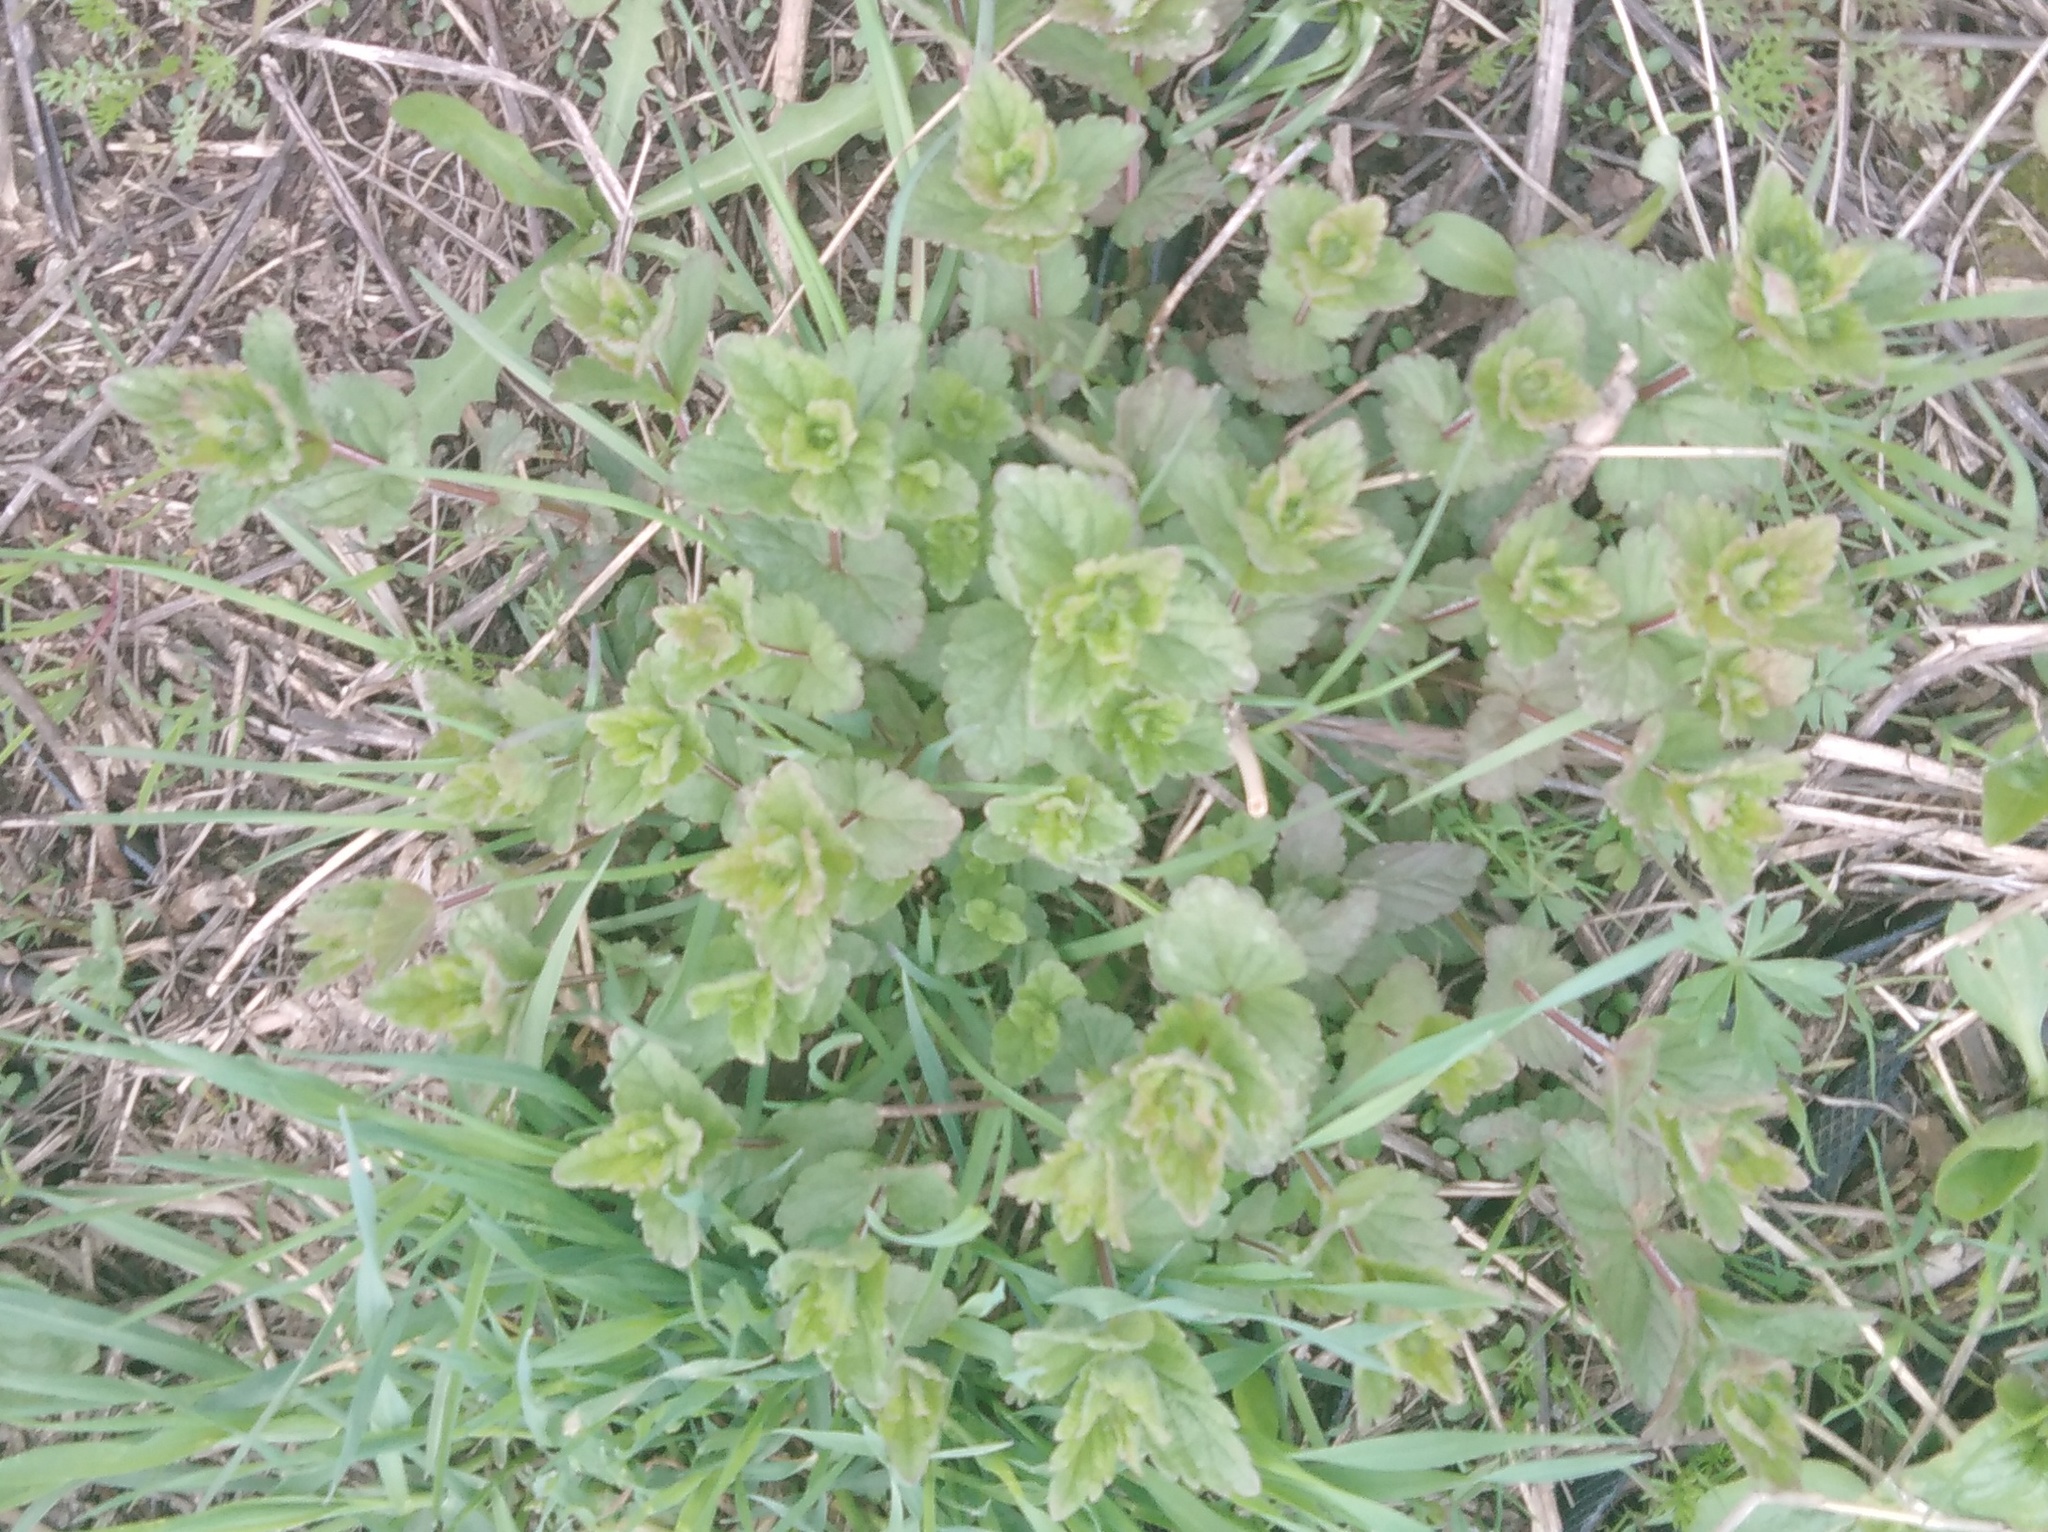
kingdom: Plantae
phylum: Tracheophyta
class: Magnoliopsida
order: Lamiales
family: Plantaginaceae
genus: Veronica
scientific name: Veronica chamaedrys
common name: Germander speedwell
